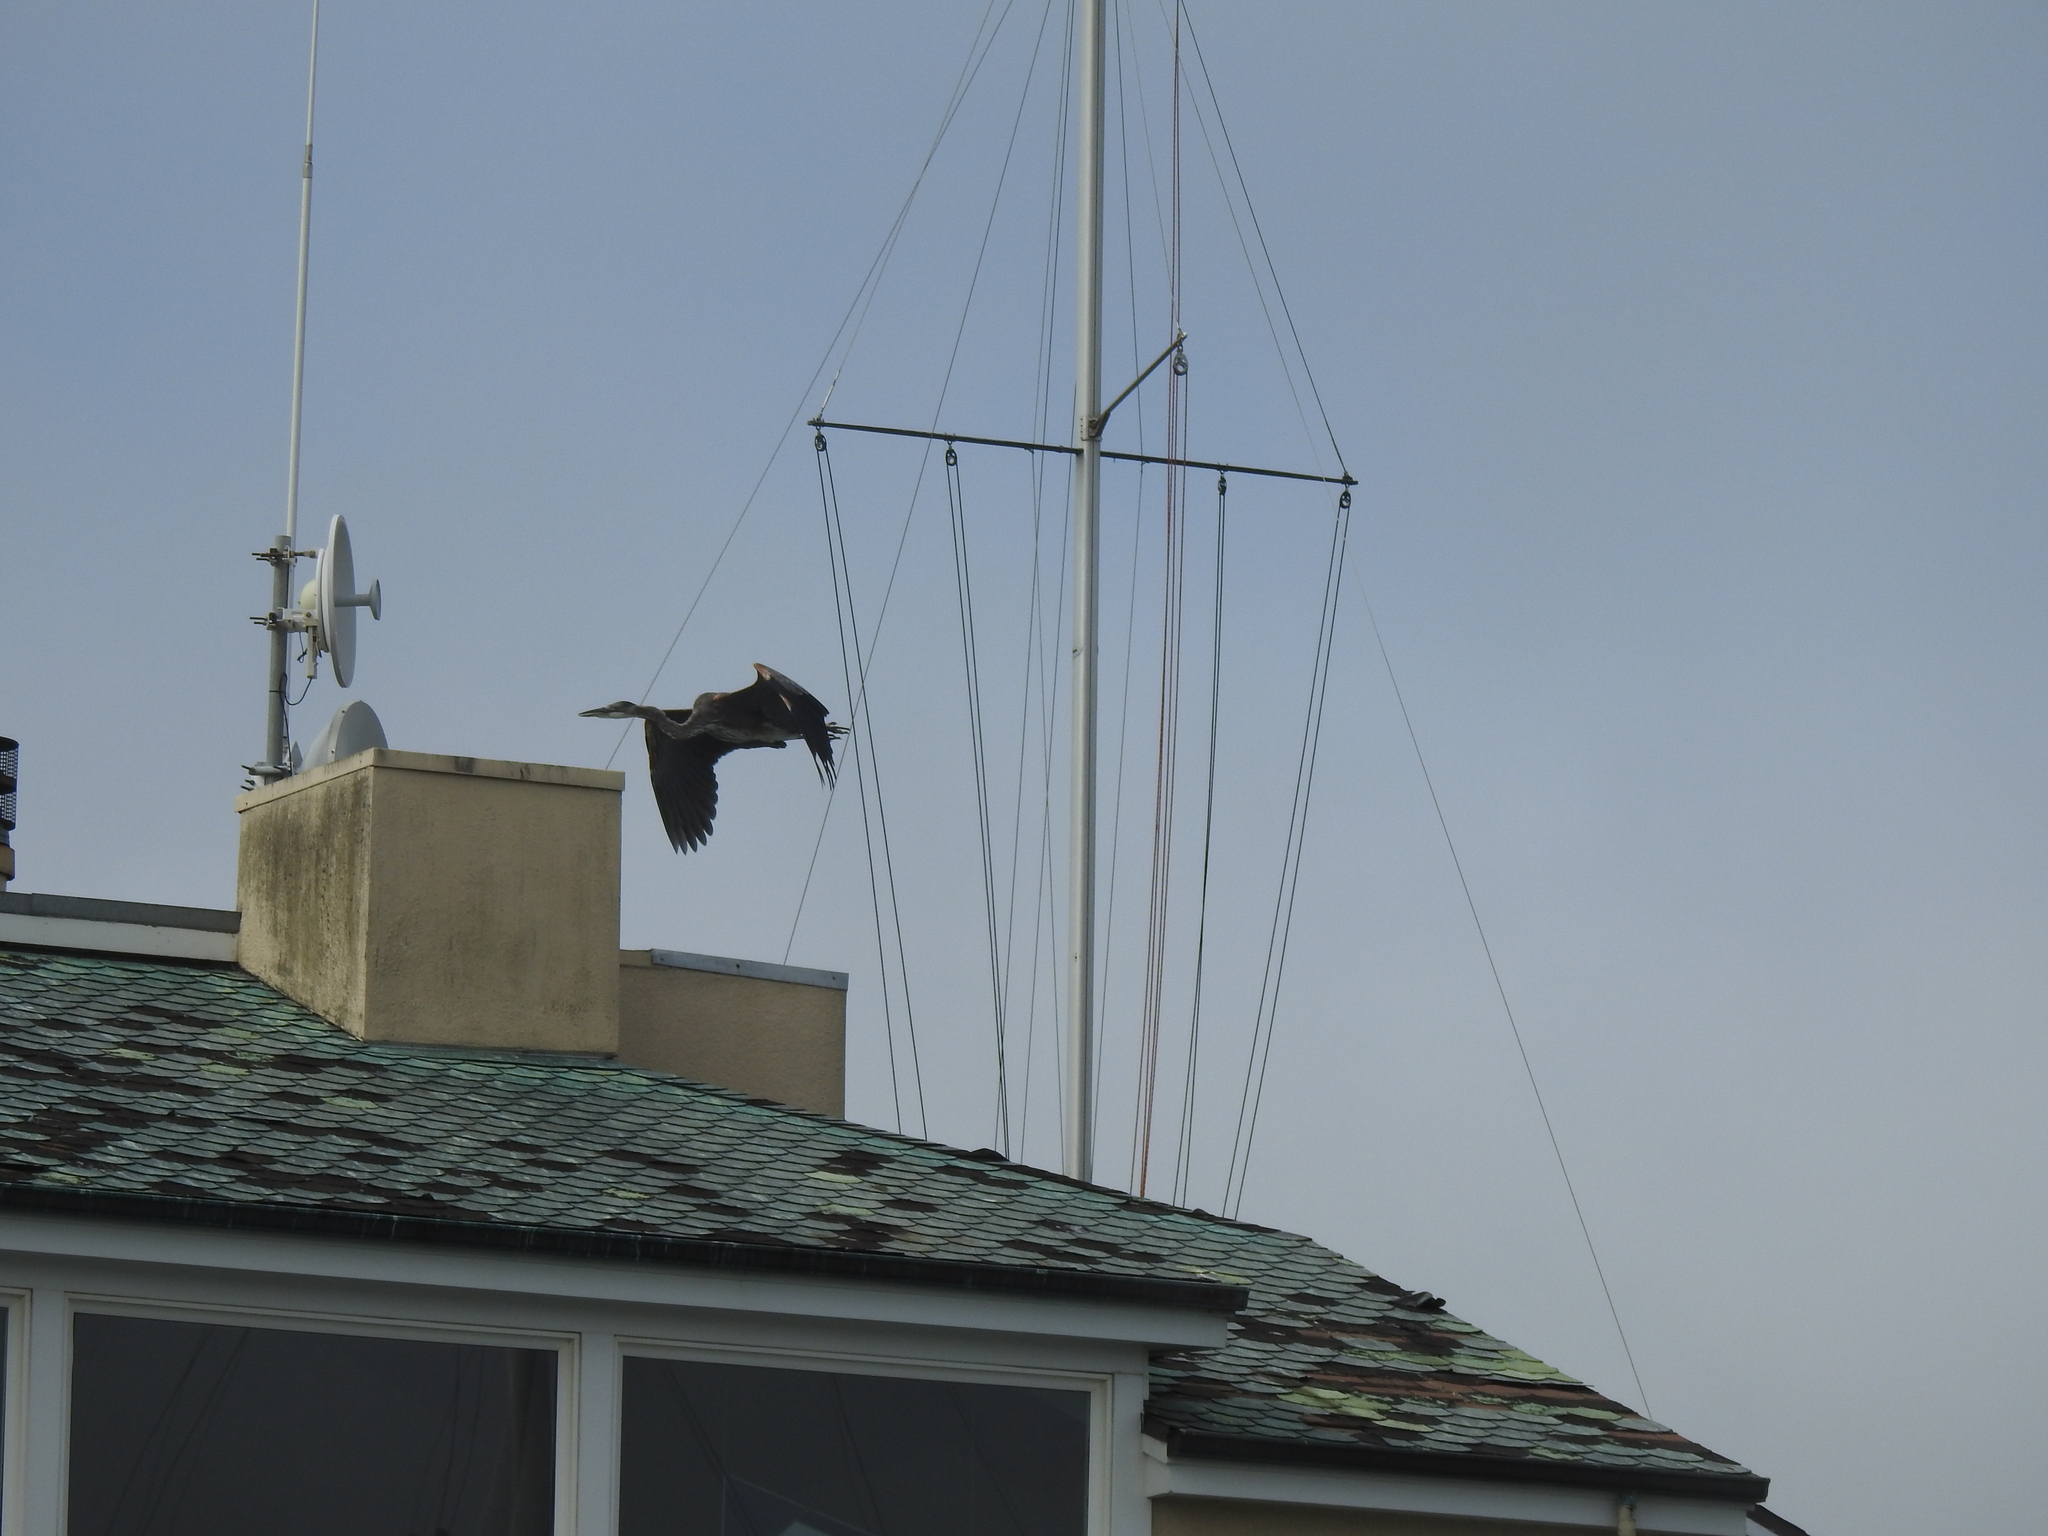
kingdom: Animalia
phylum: Chordata
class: Aves
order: Pelecaniformes
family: Ardeidae
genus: Ardea
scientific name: Ardea herodias
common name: Great blue heron
